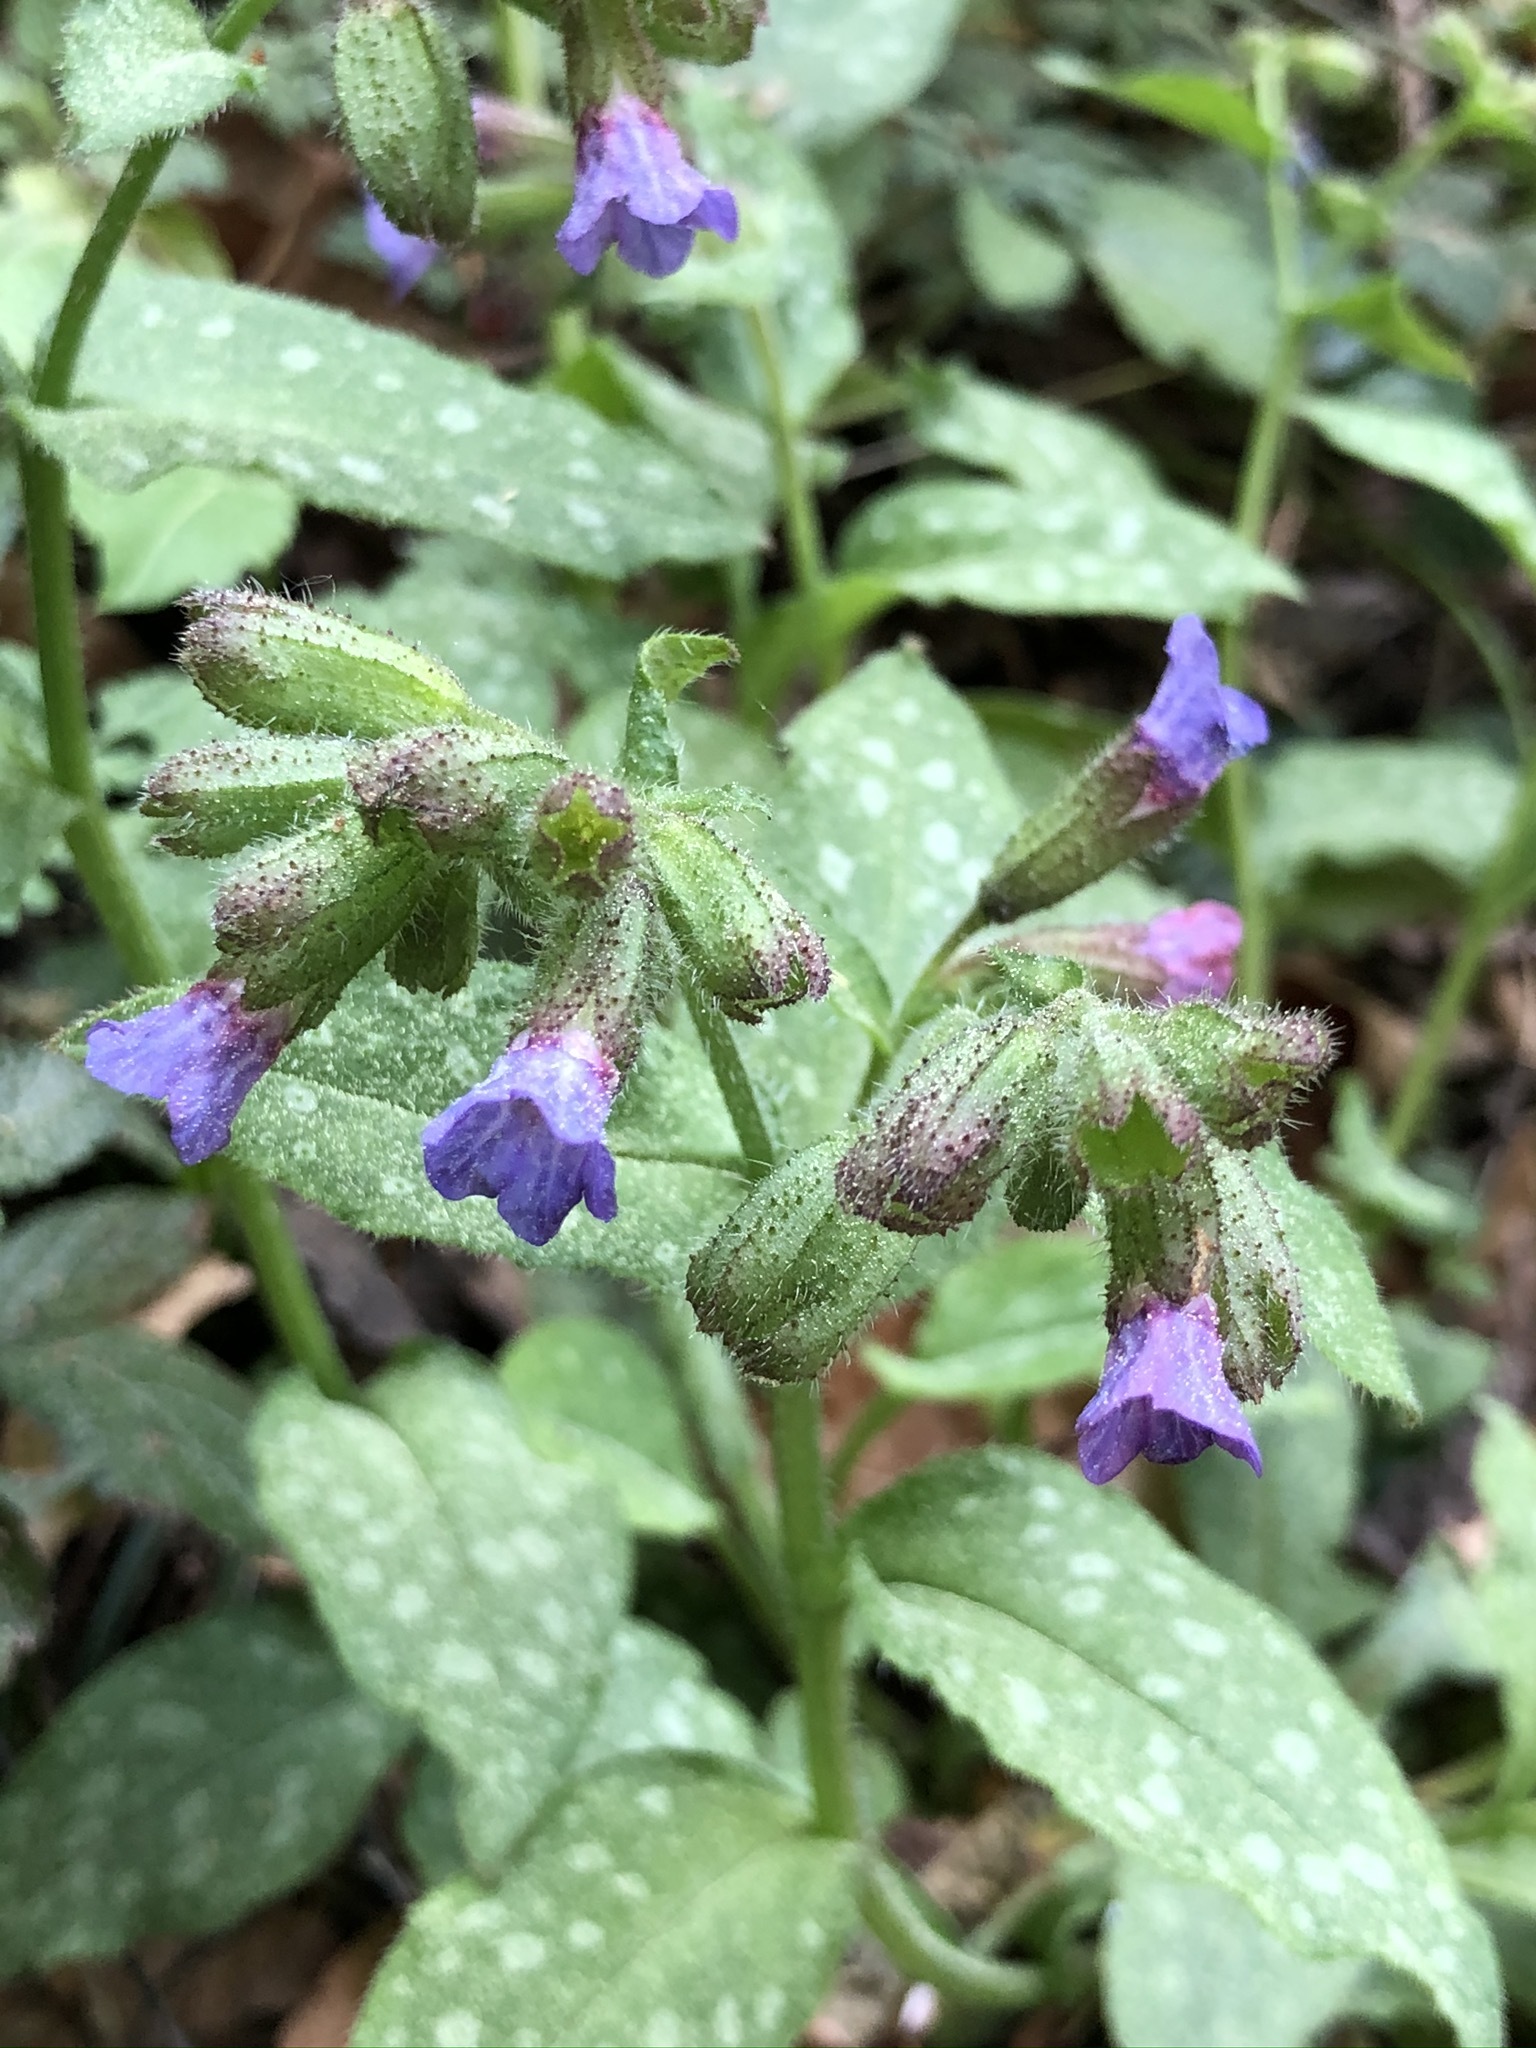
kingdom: Plantae
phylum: Tracheophyta
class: Magnoliopsida
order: Boraginales
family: Boraginaceae
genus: Pulmonaria
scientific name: Pulmonaria officinalis
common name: Lungwort
